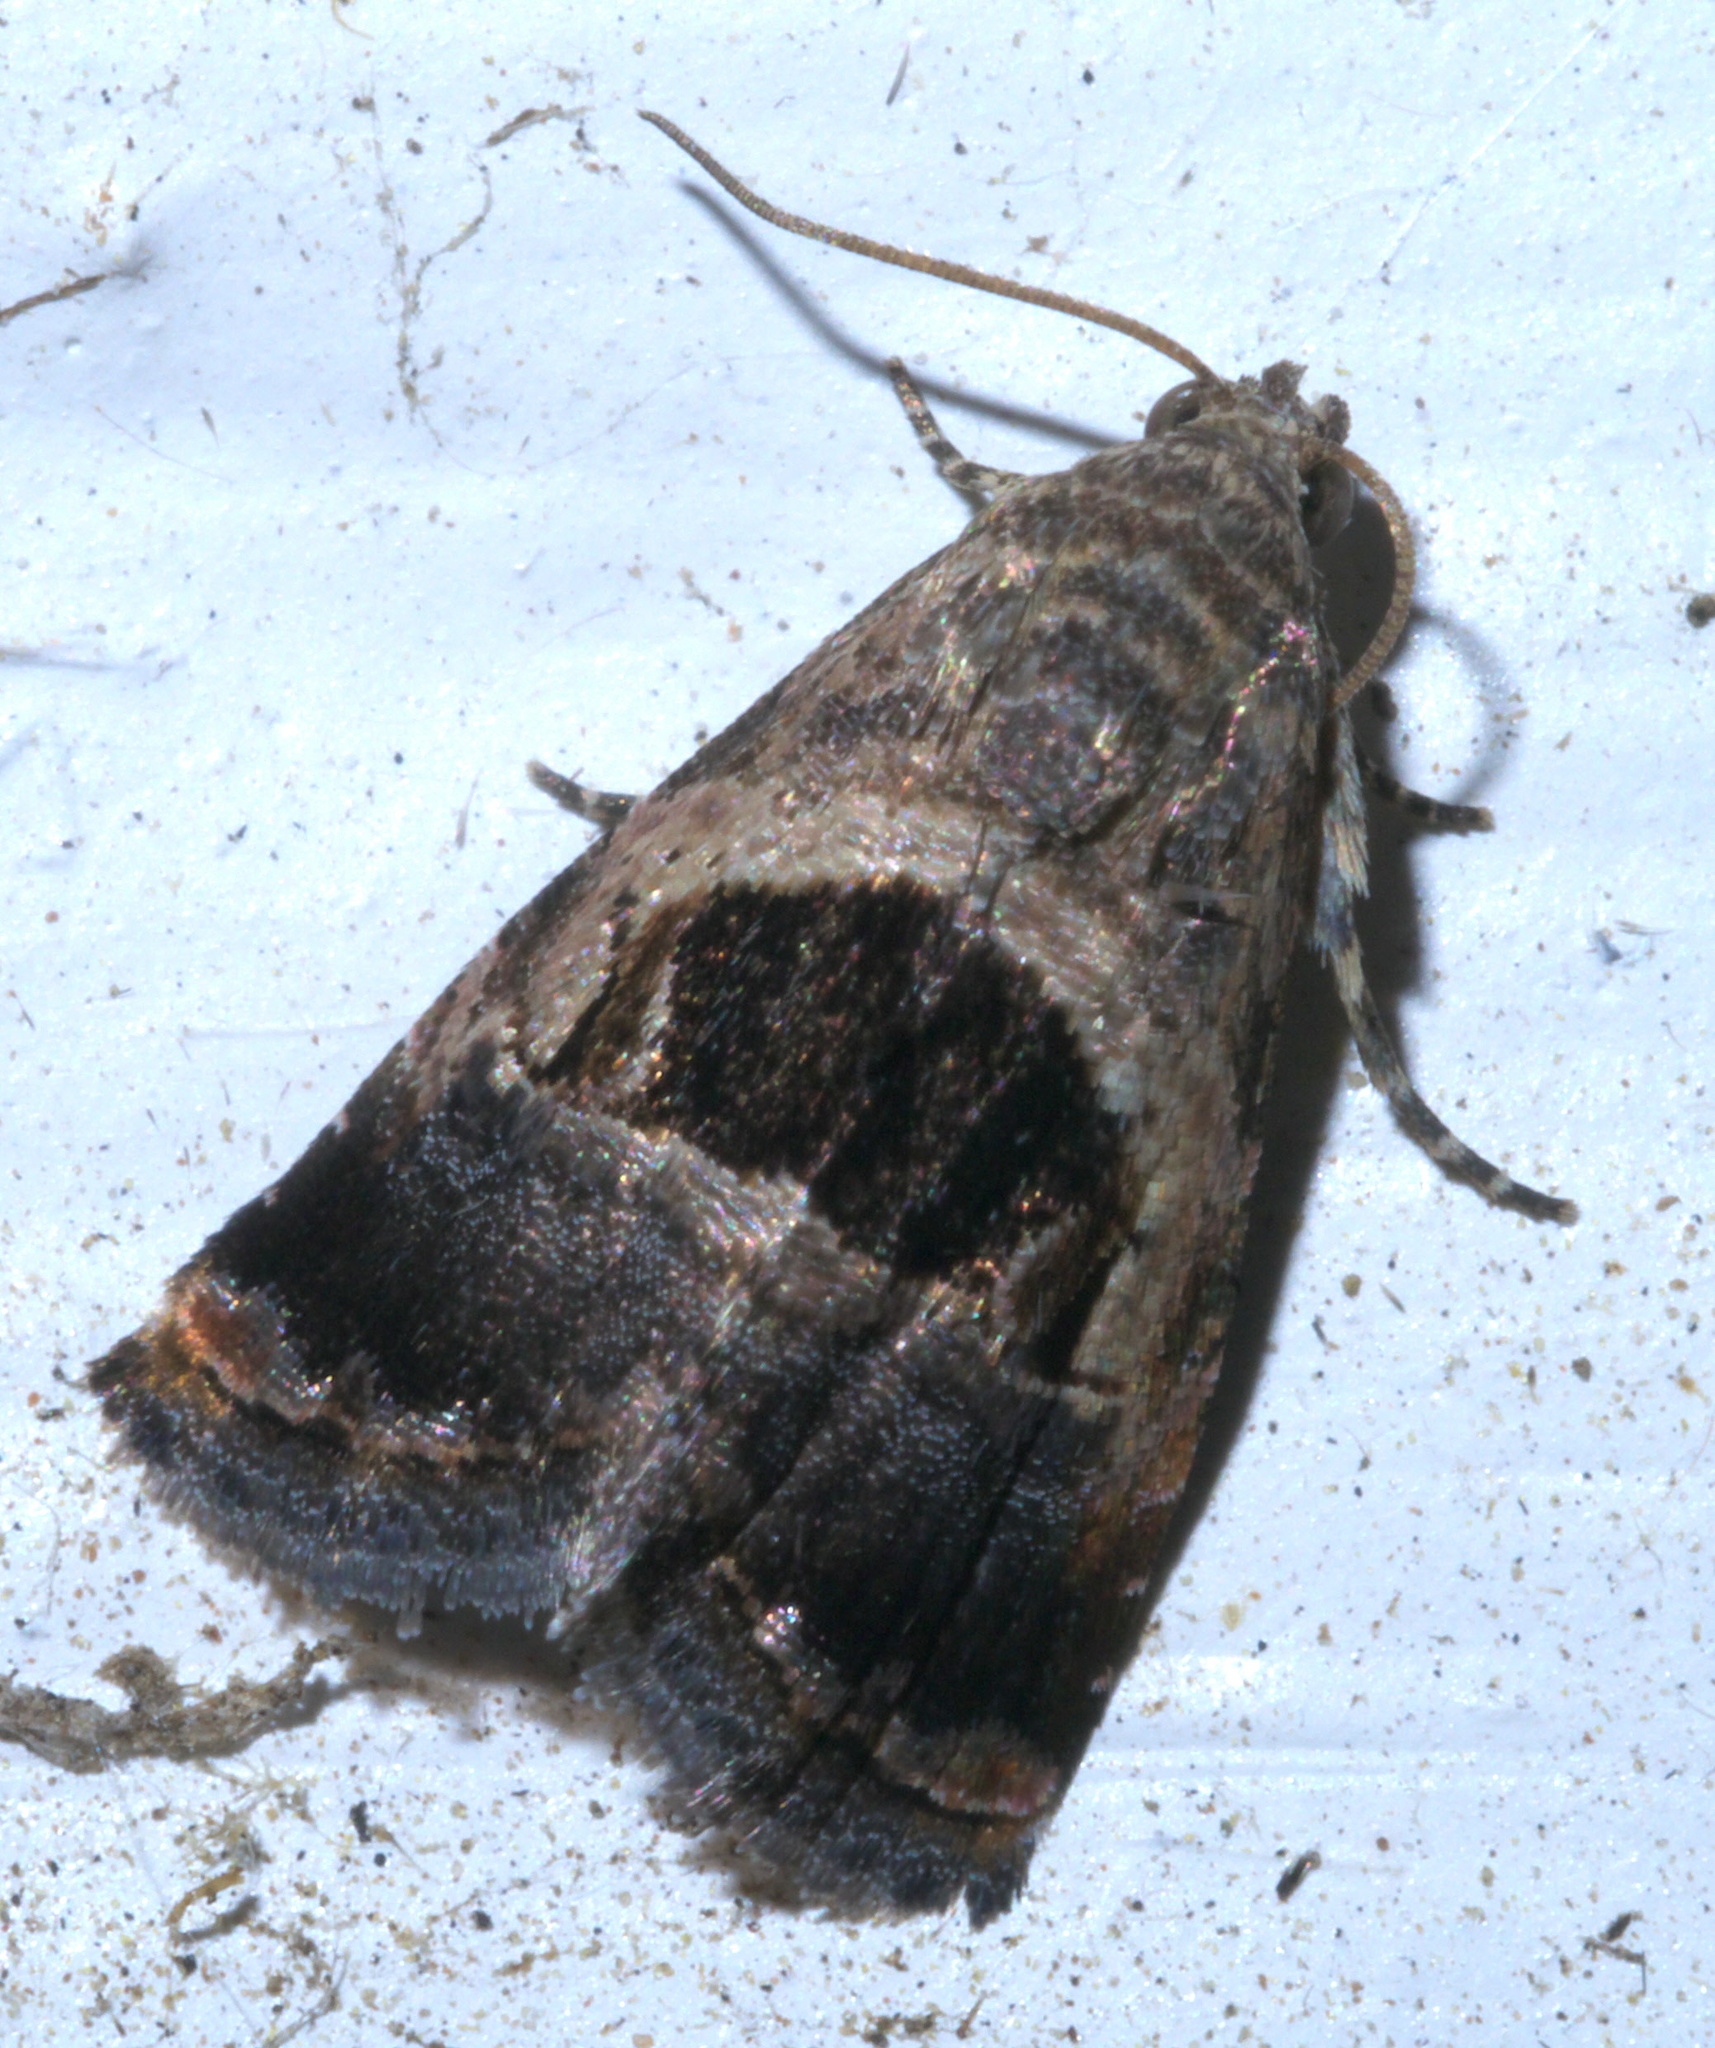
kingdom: Animalia
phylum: Arthropoda
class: Insecta
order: Lepidoptera
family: Noctuidae
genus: Tripudia
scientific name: Tripudia rectangula
